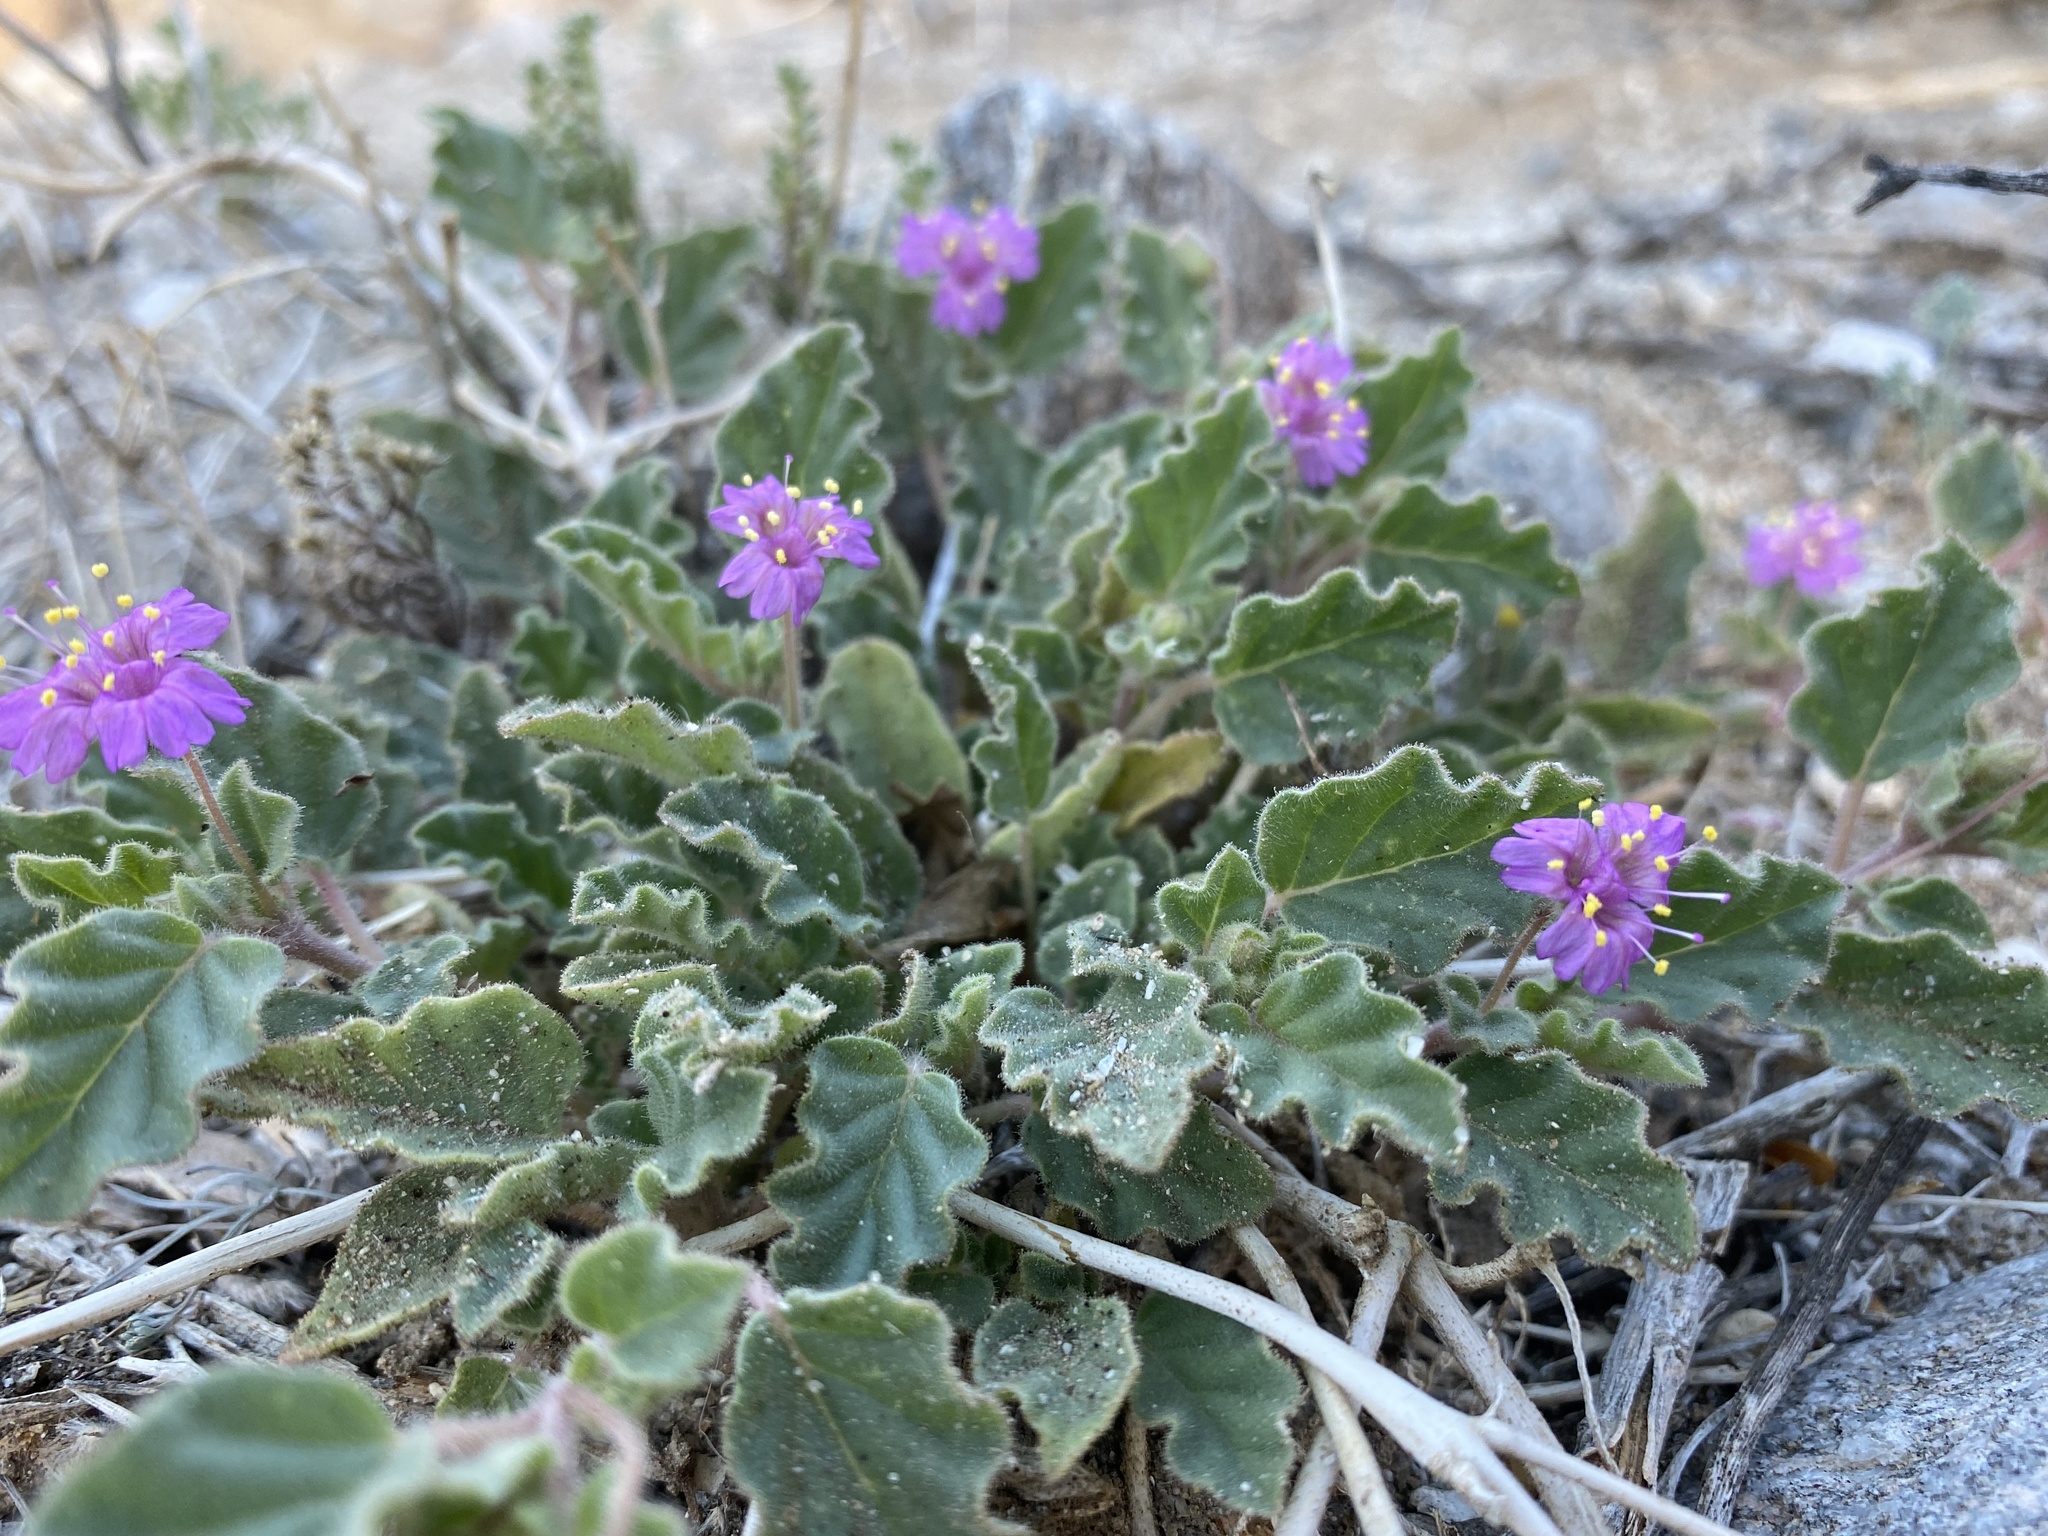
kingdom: Plantae
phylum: Tracheophyta
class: Magnoliopsida
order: Caryophyllales
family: Nyctaginaceae
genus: Allionia
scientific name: Allionia incarnata
